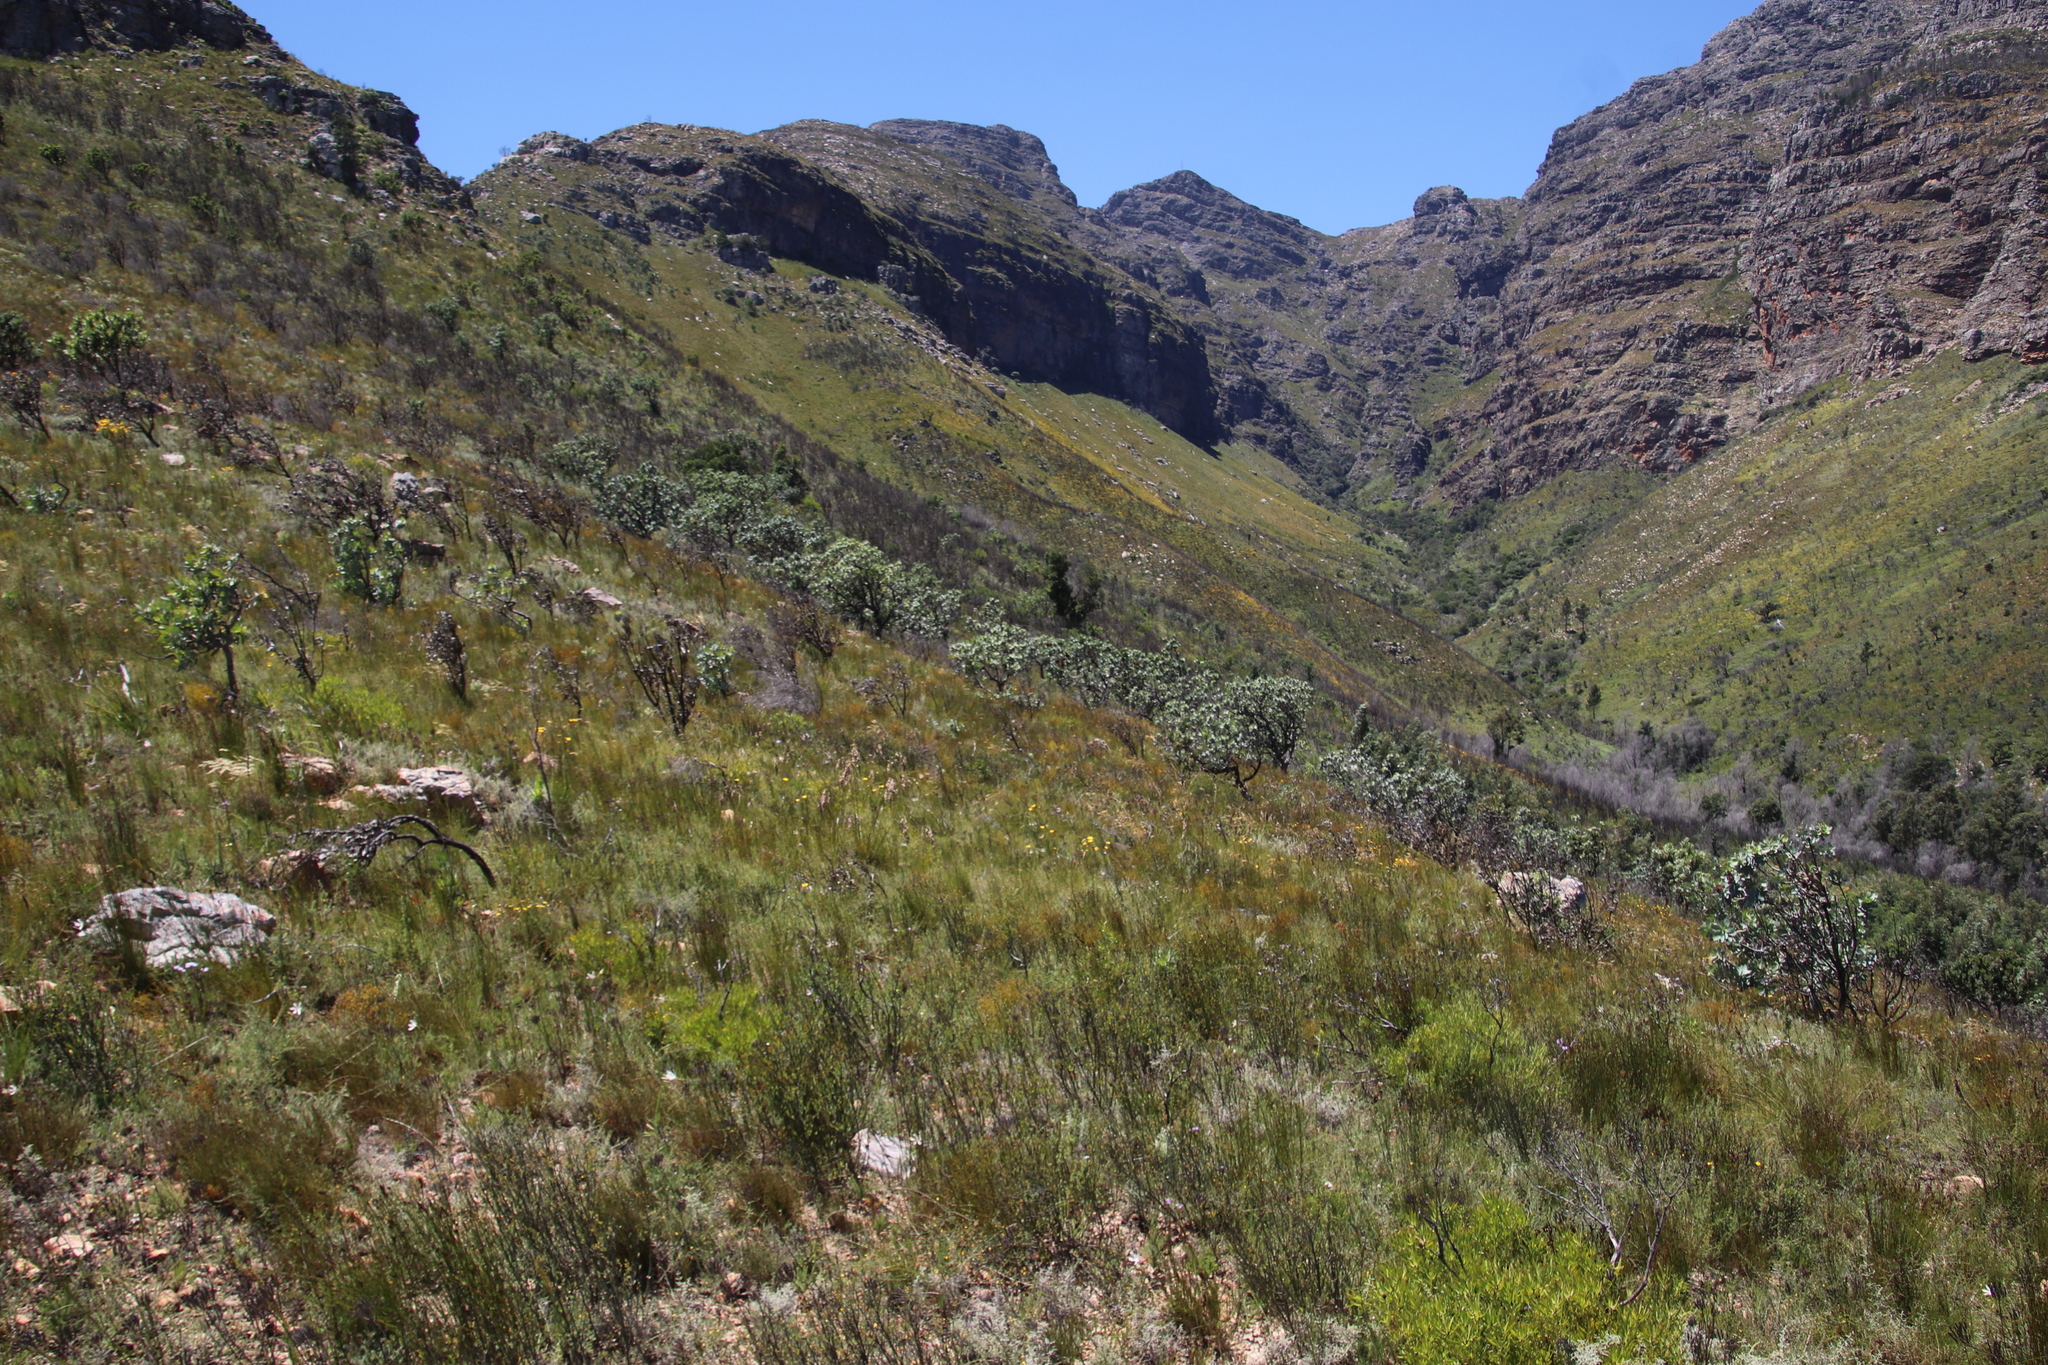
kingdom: Plantae
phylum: Tracheophyta
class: Magnoliopsida
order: Proteales
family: Proteaceae
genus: Protea
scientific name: Protea nitida
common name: Tree protea
